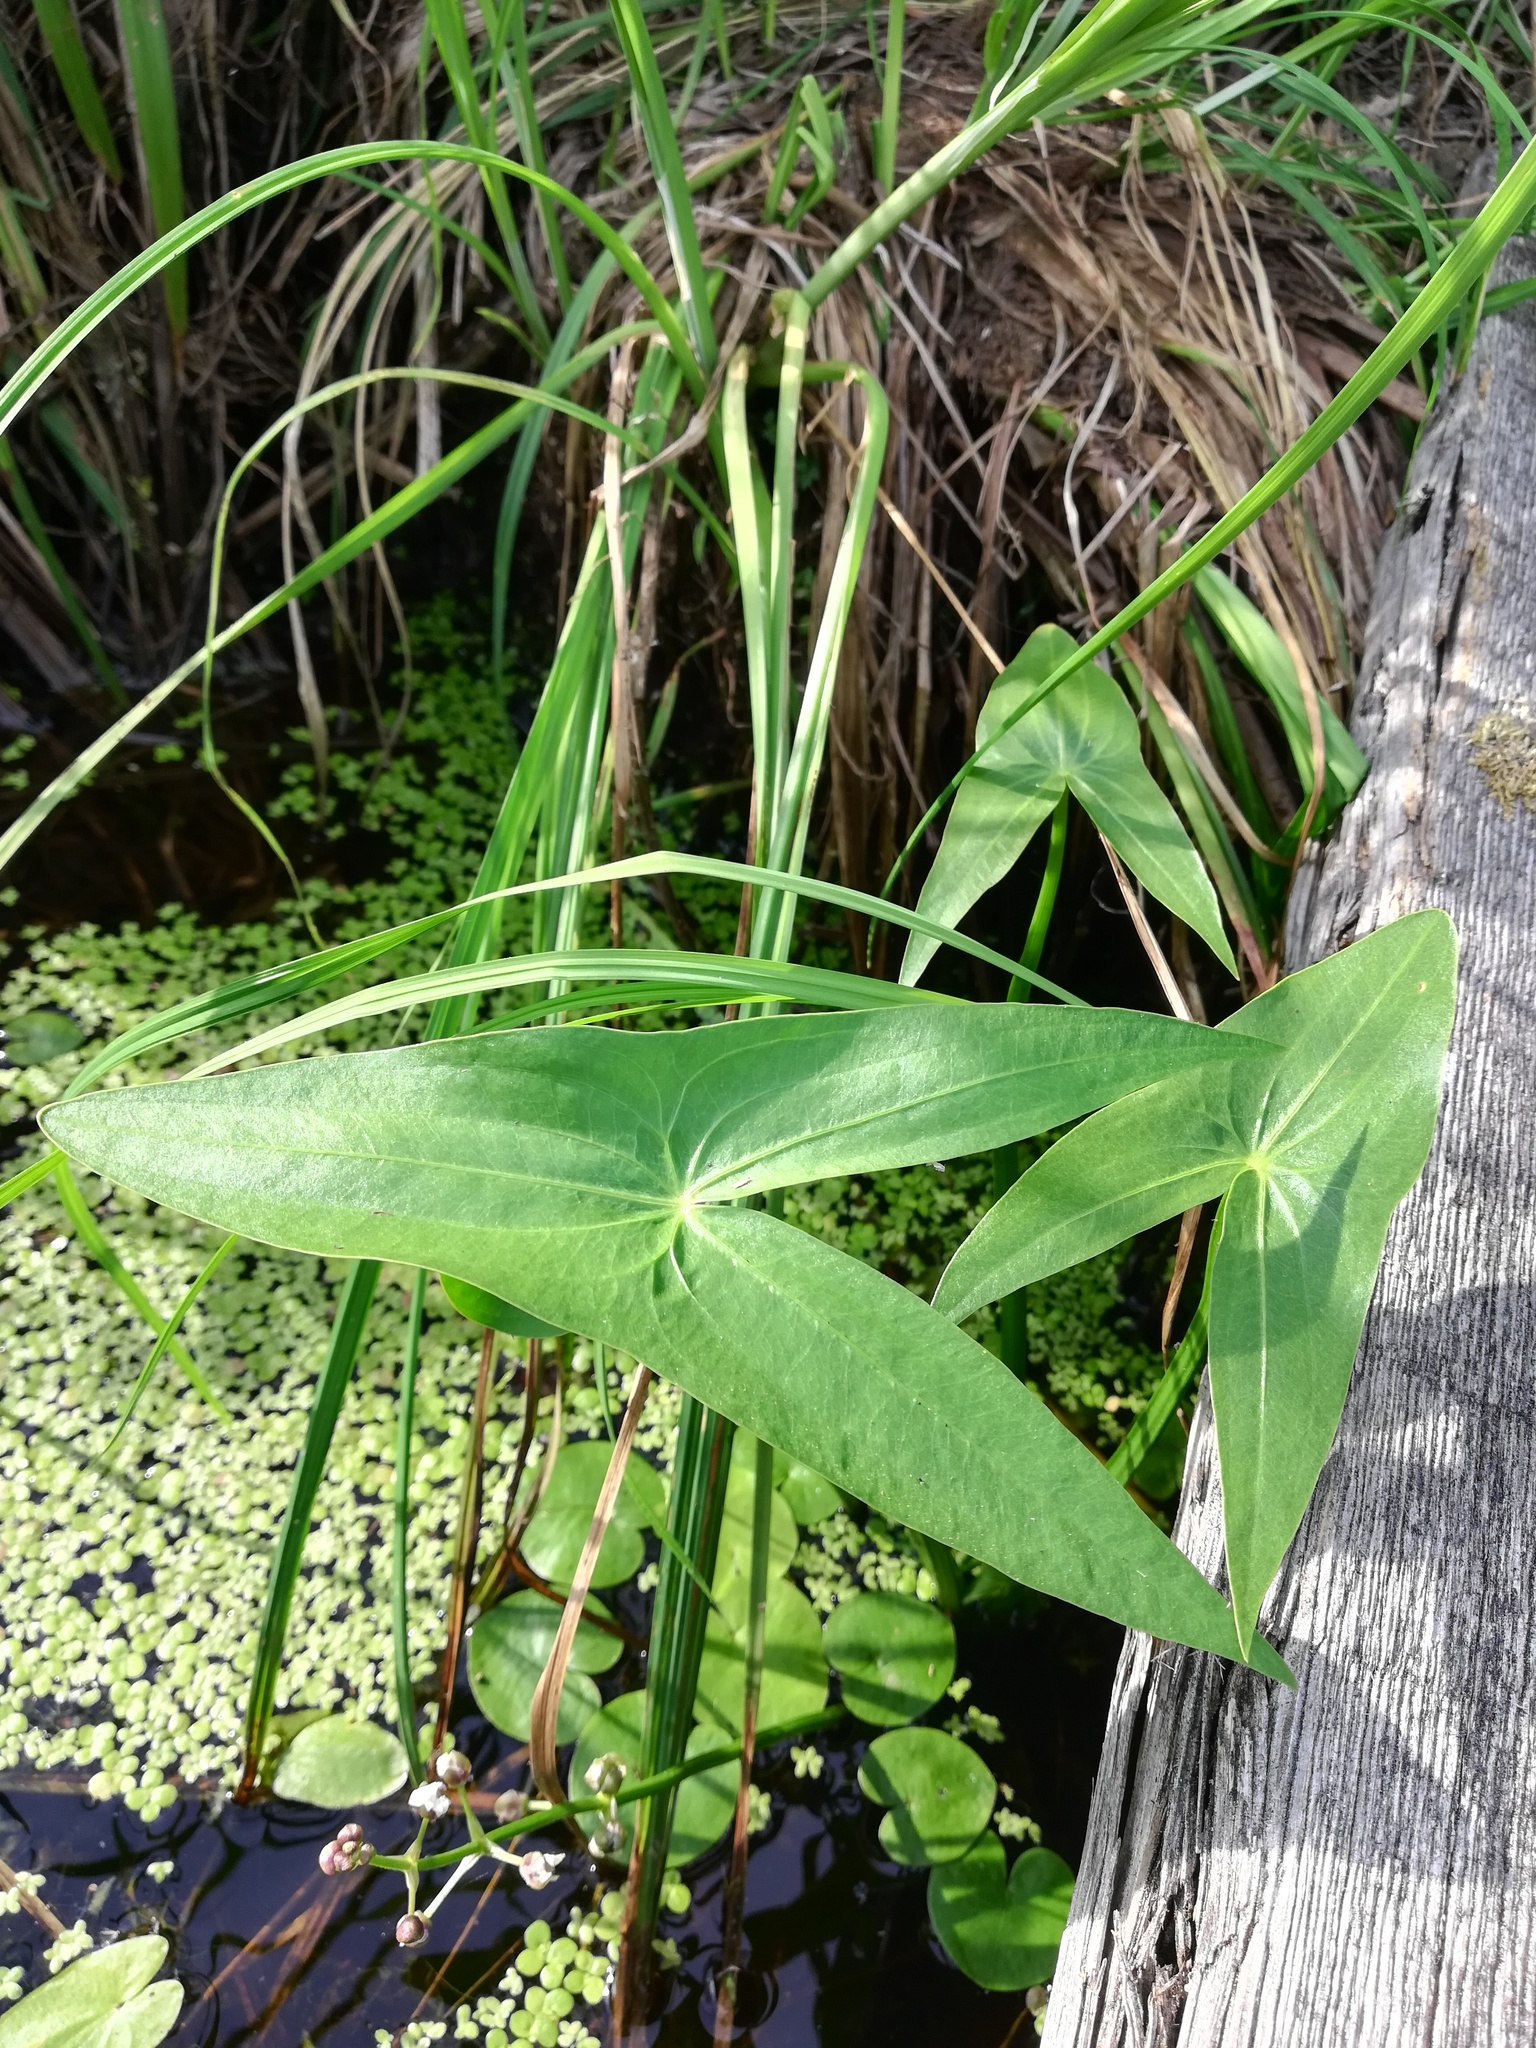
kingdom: Plantae
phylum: Tracheophyta
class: Liliopsida
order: Alismatales
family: Alismataceae
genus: Sagittaria
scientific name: Sagittaria sagittifolia
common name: Arrowhead
